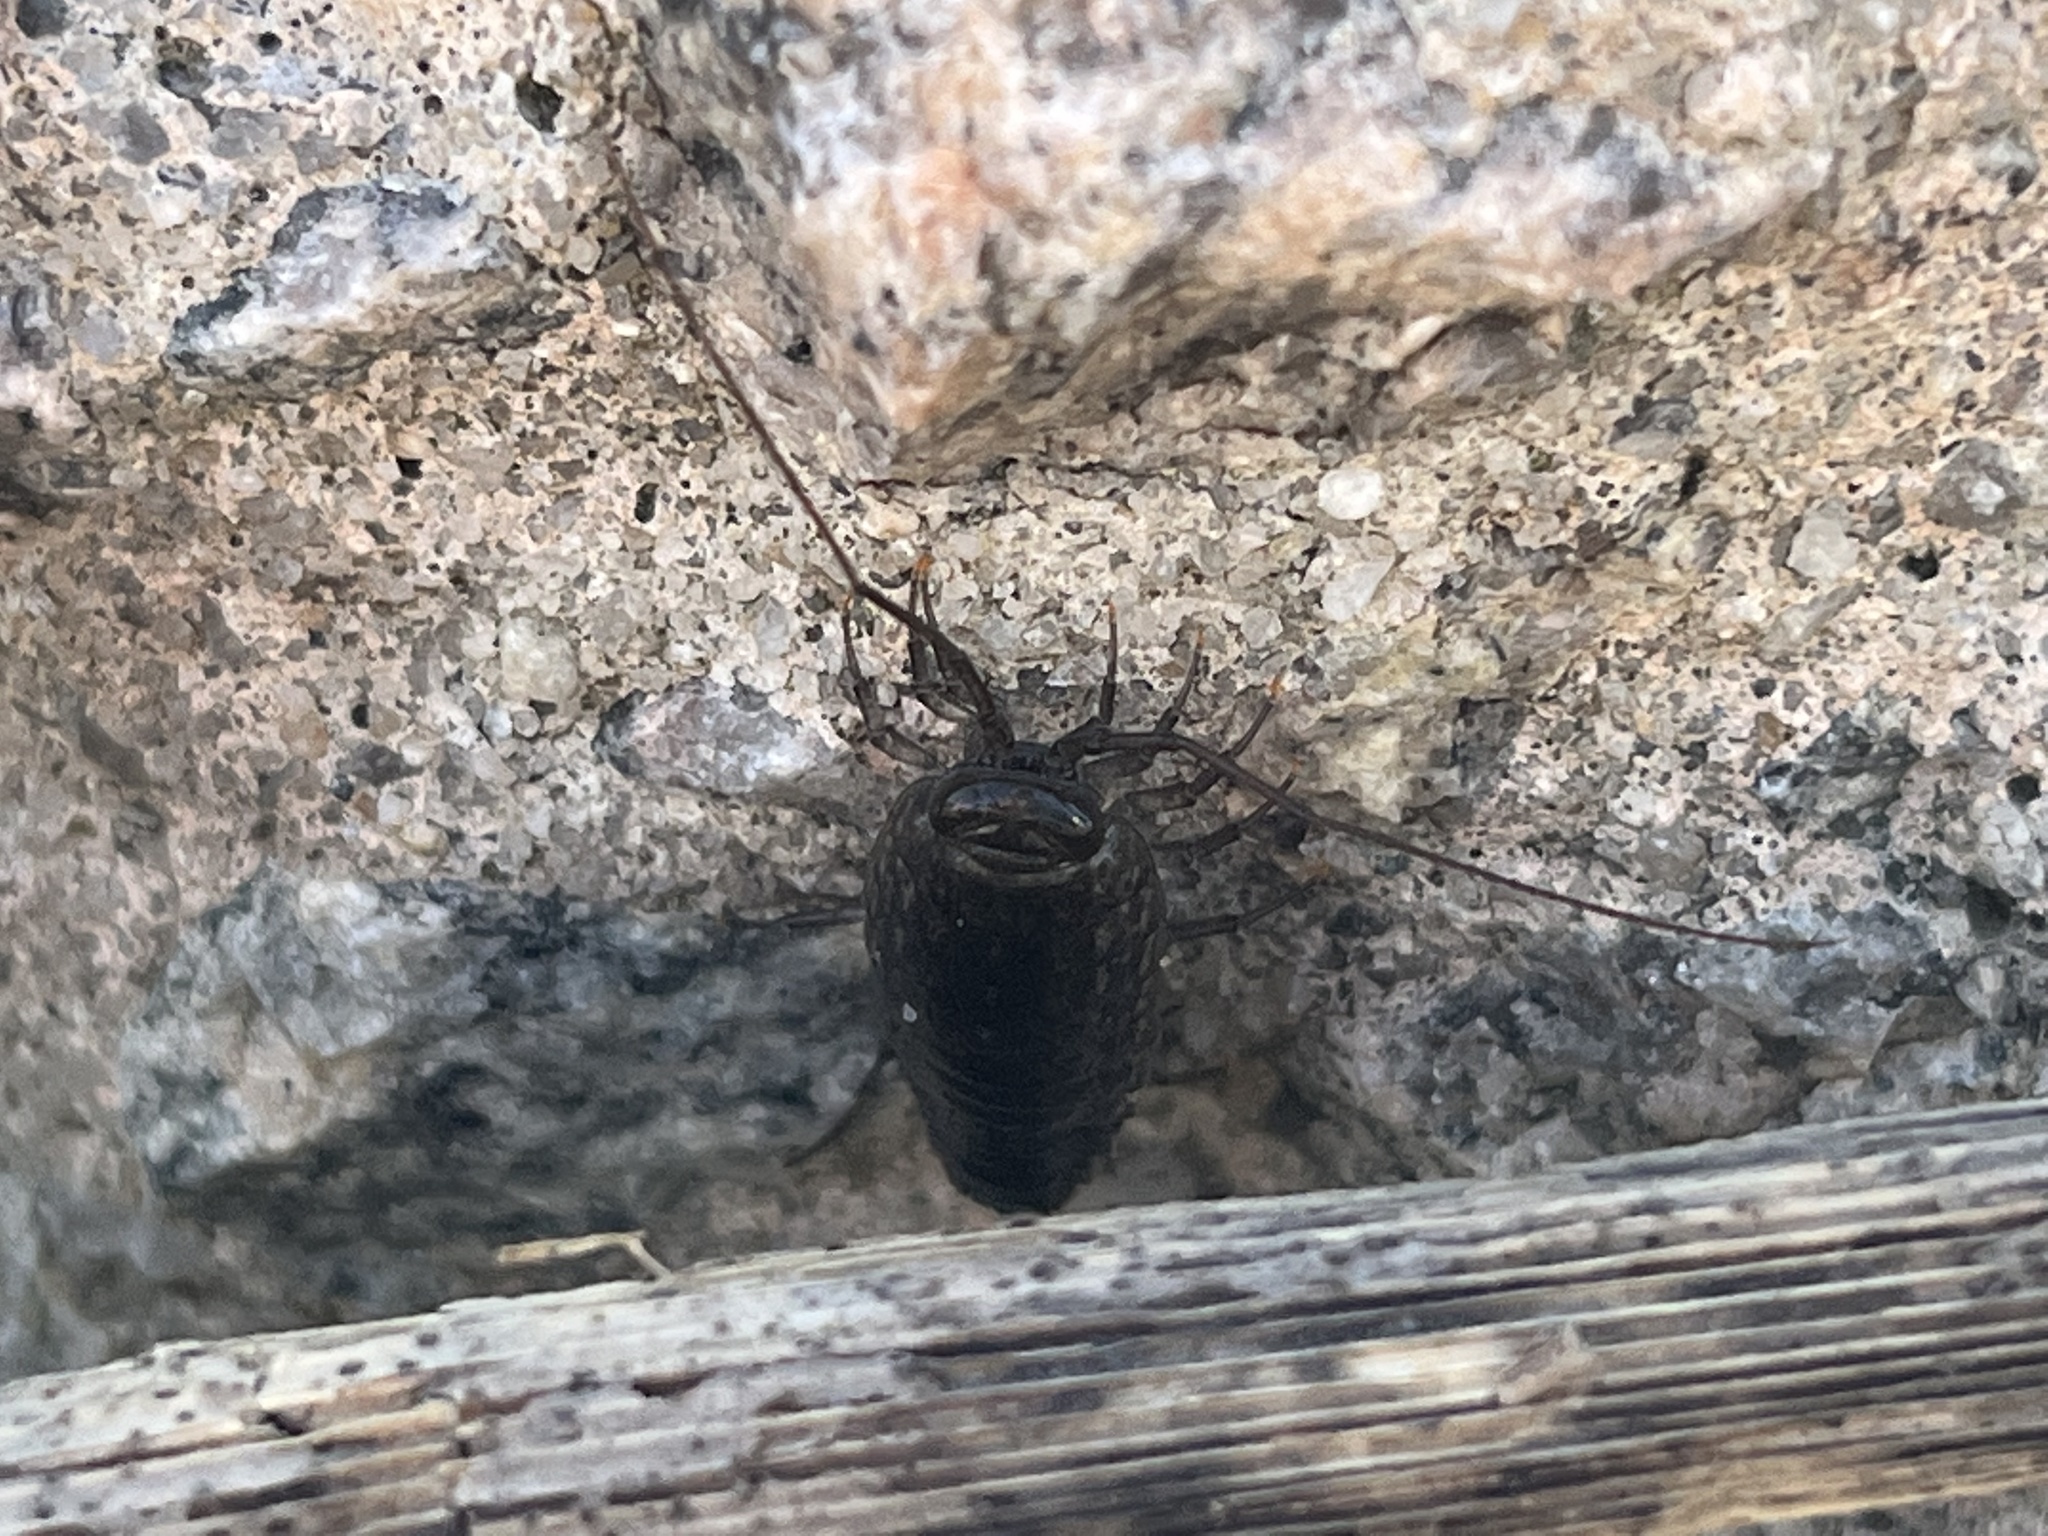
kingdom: Animalia
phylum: Arthropoda
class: Malacostraca
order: Isopoda
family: Ligiidae
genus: Ligia
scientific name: Ligia exotica
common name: Wharf roach
